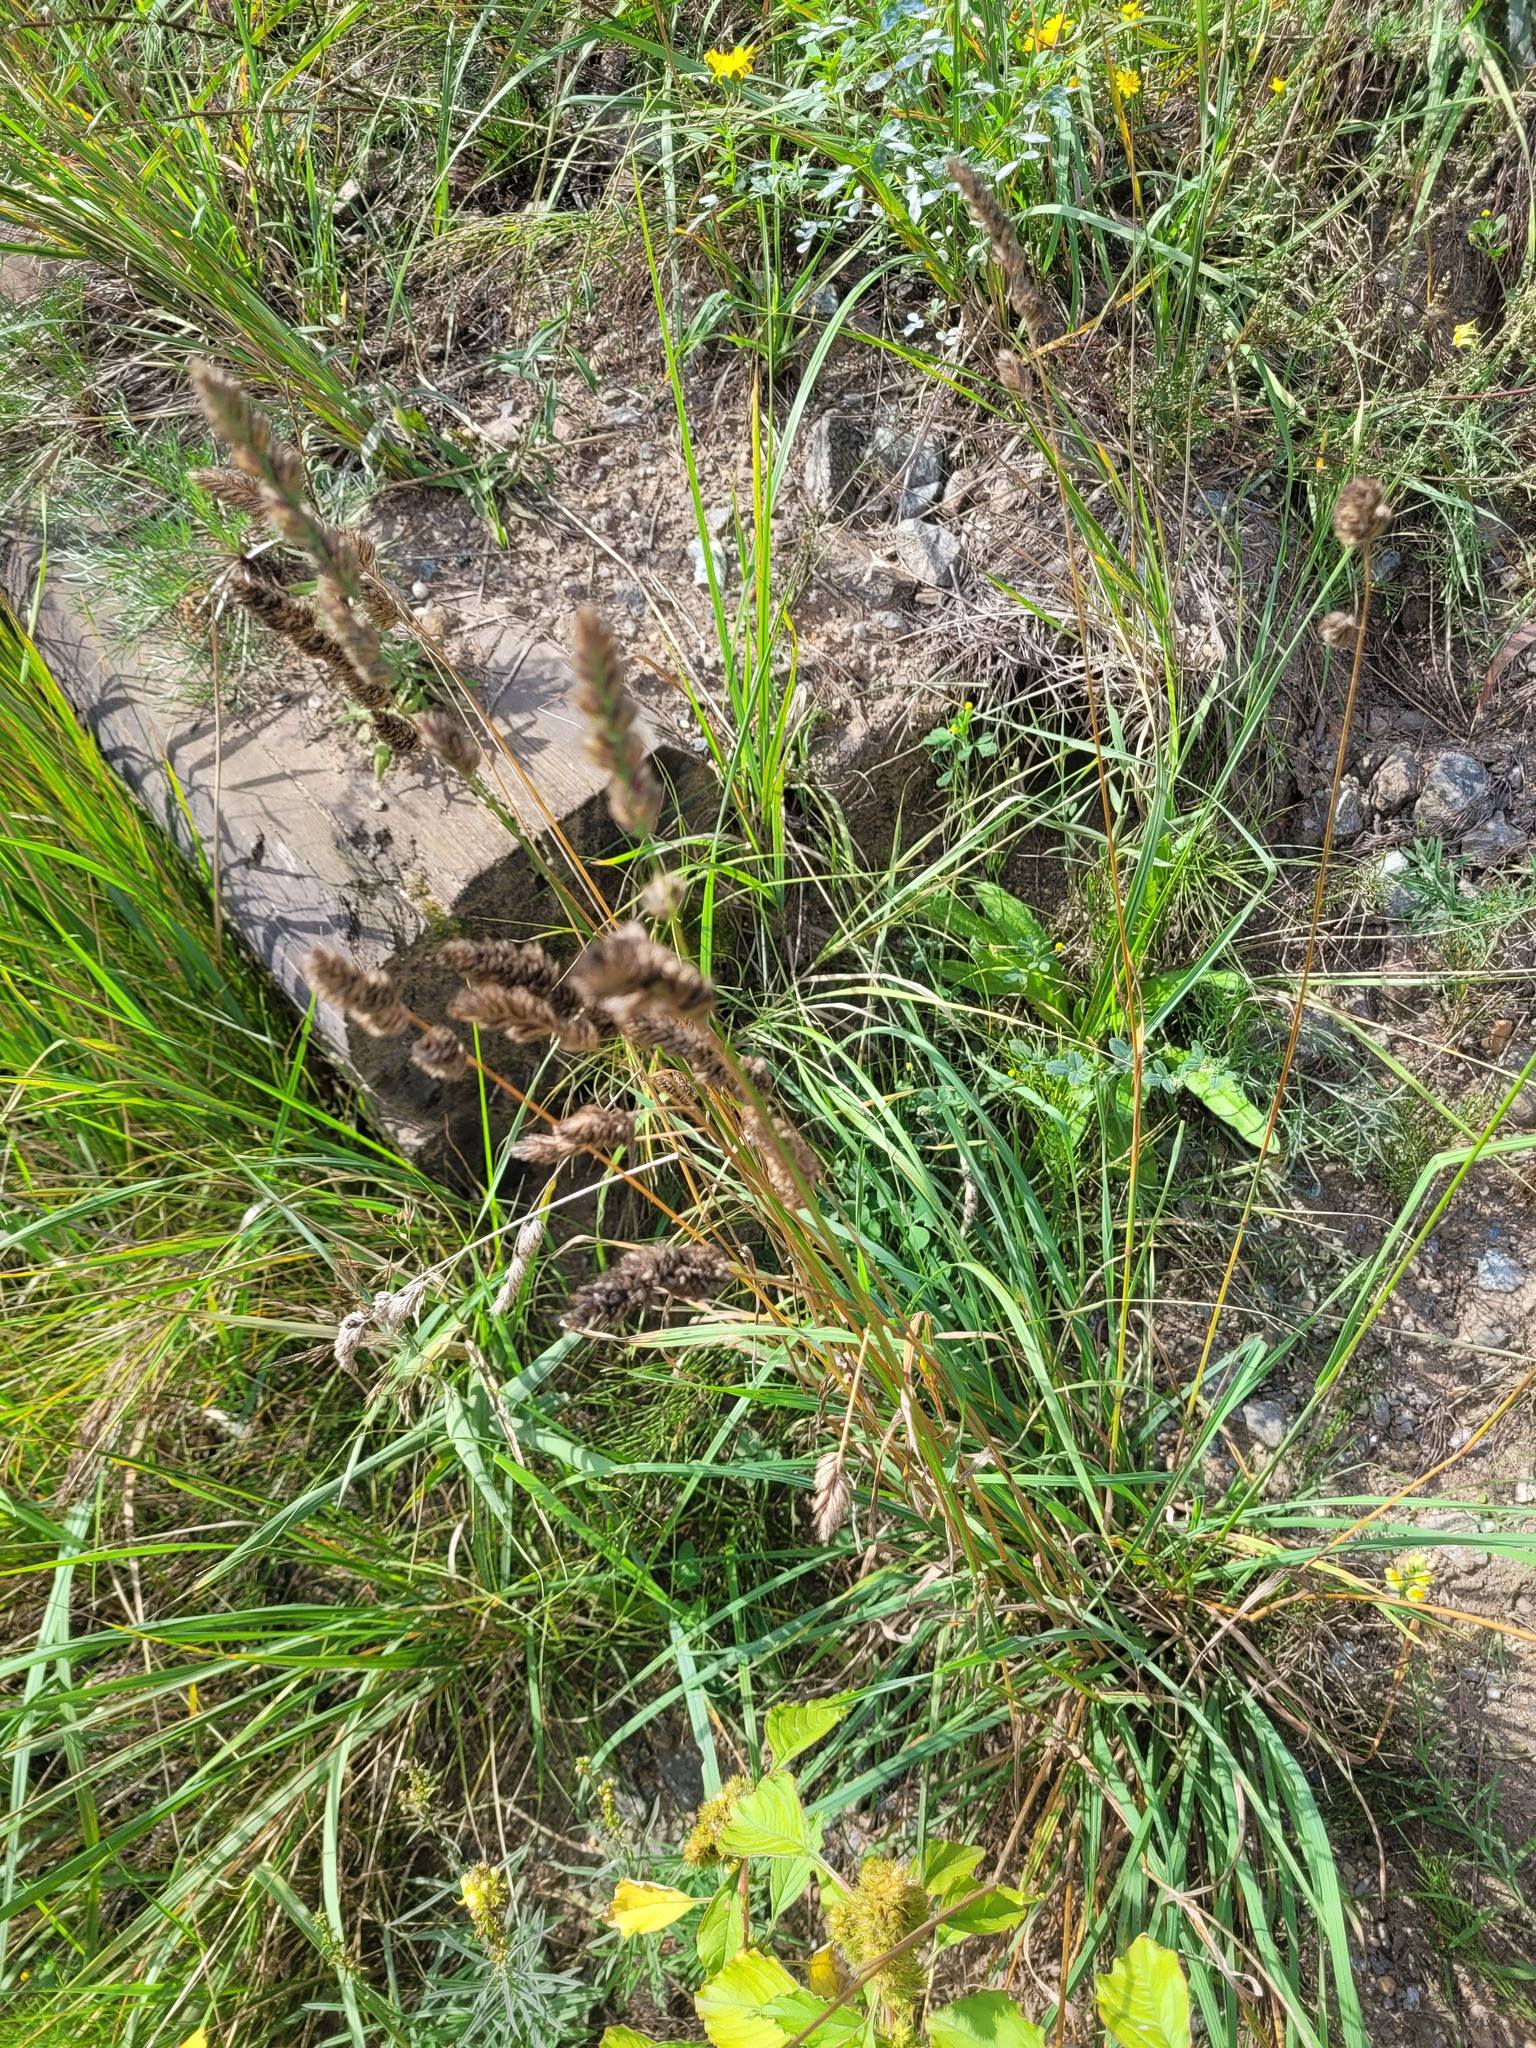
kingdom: Plantae
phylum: Tracheophyta
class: Liliopsida
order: Poales
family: Poaceae
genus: Dactylis
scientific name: Dactylis glomerata
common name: Orchardgrass
